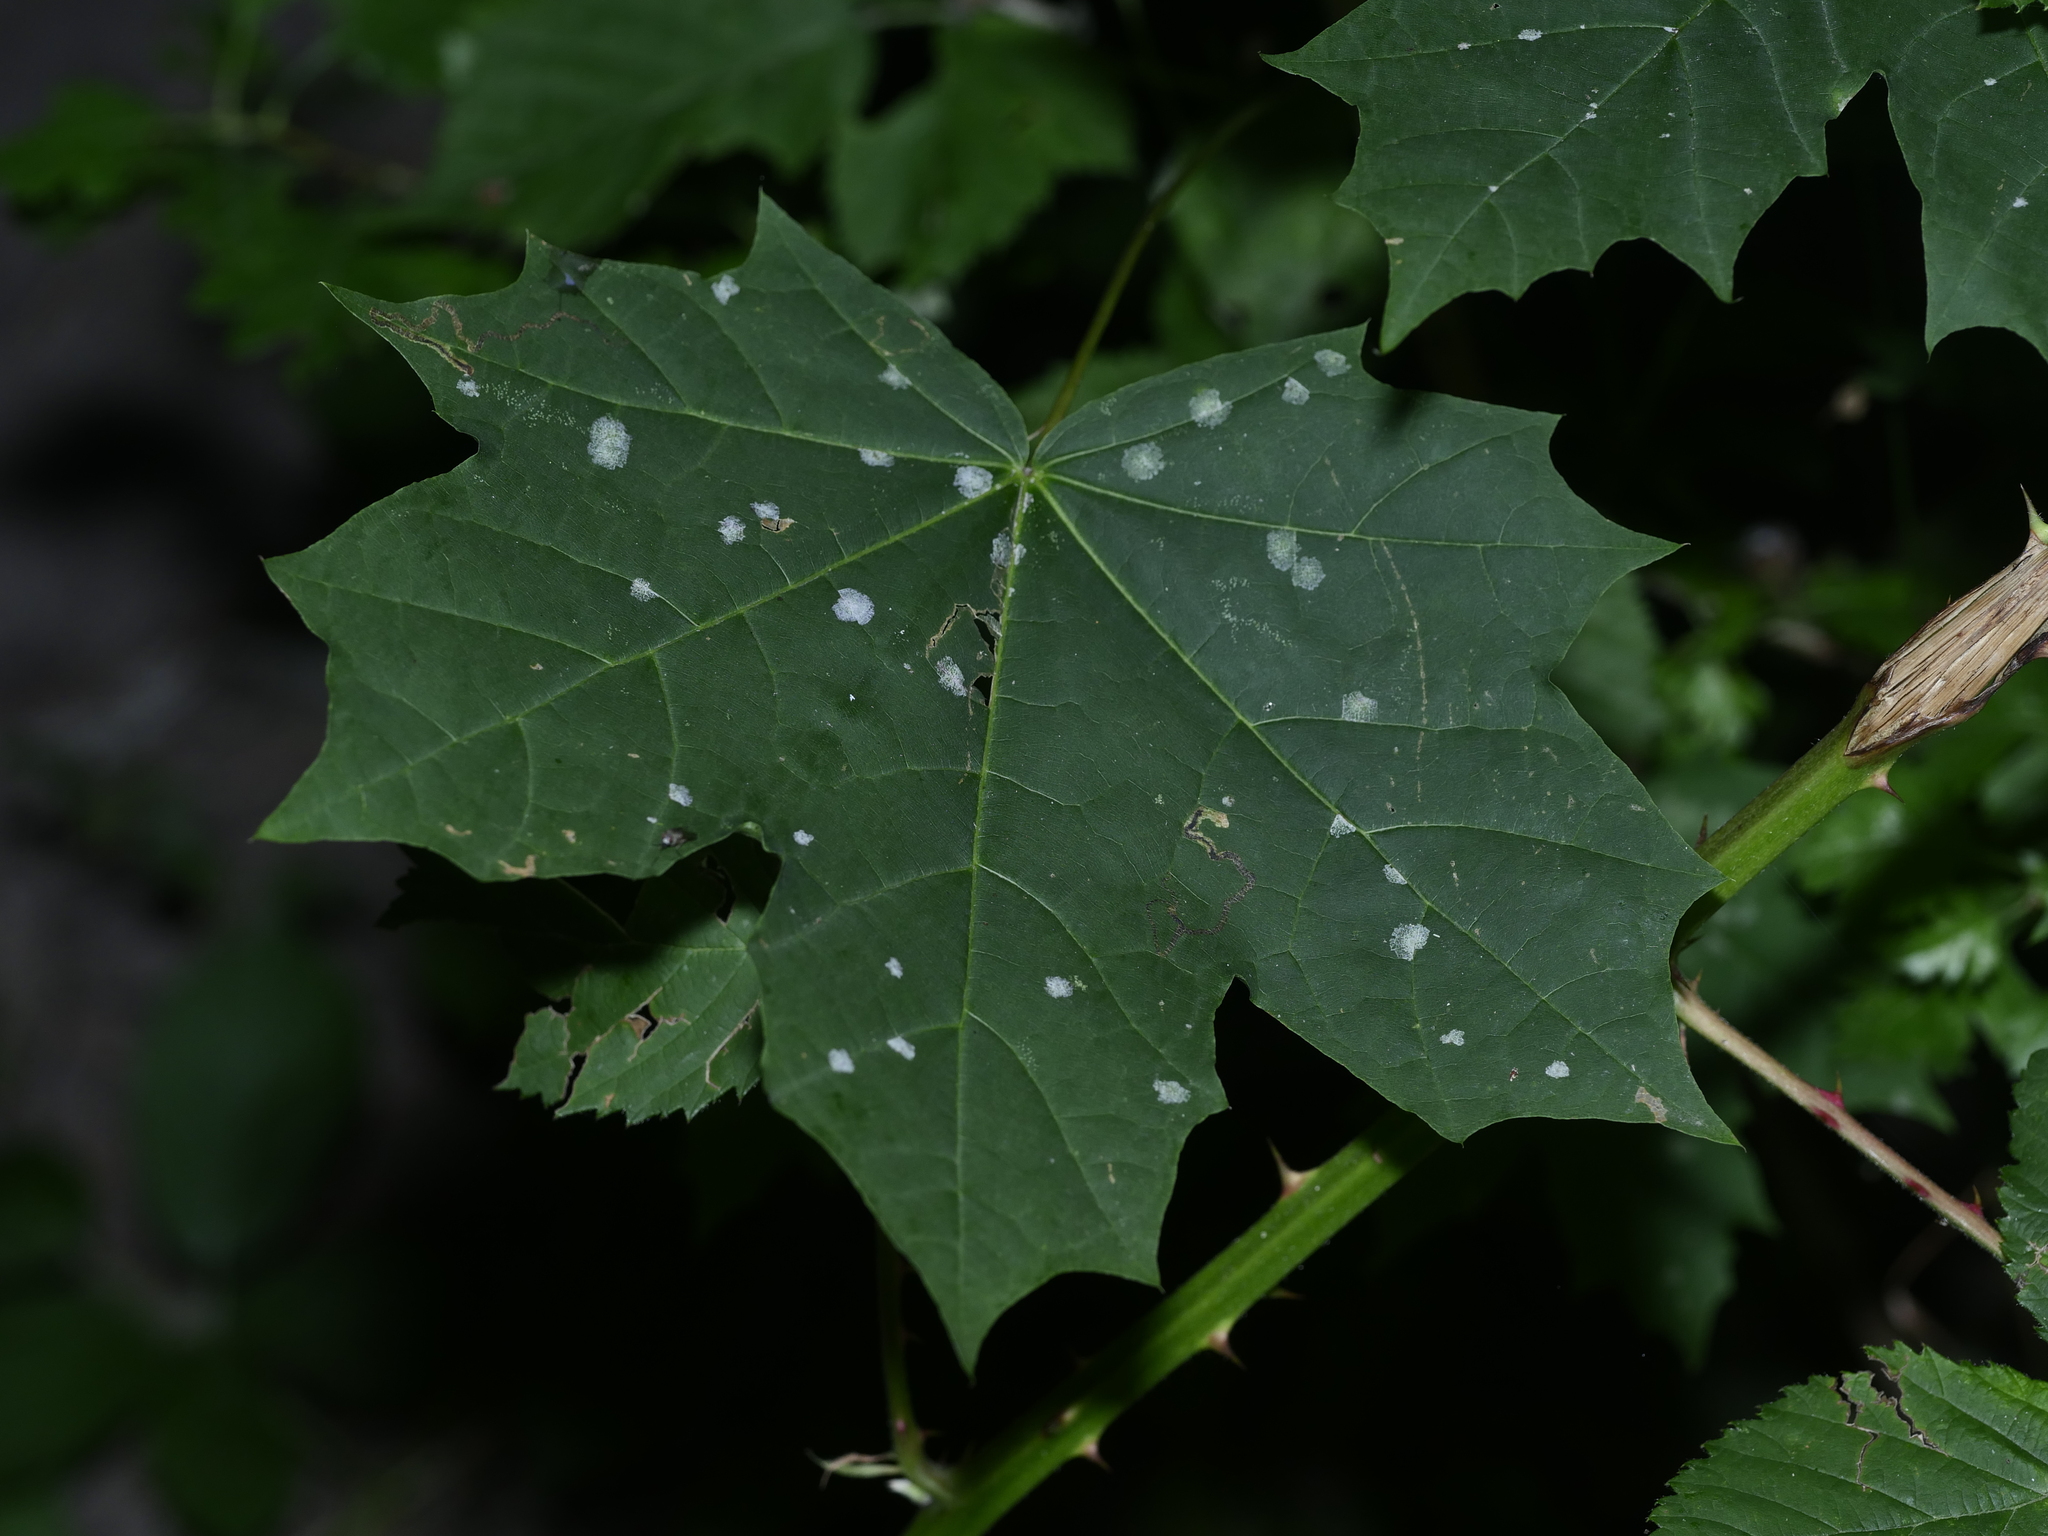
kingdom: Plantae
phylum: Tracheophyta
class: Magnoliopsida
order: Sapindales
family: Sapindaceae
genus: Acer
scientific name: Acer platanoides
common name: Norway maple
